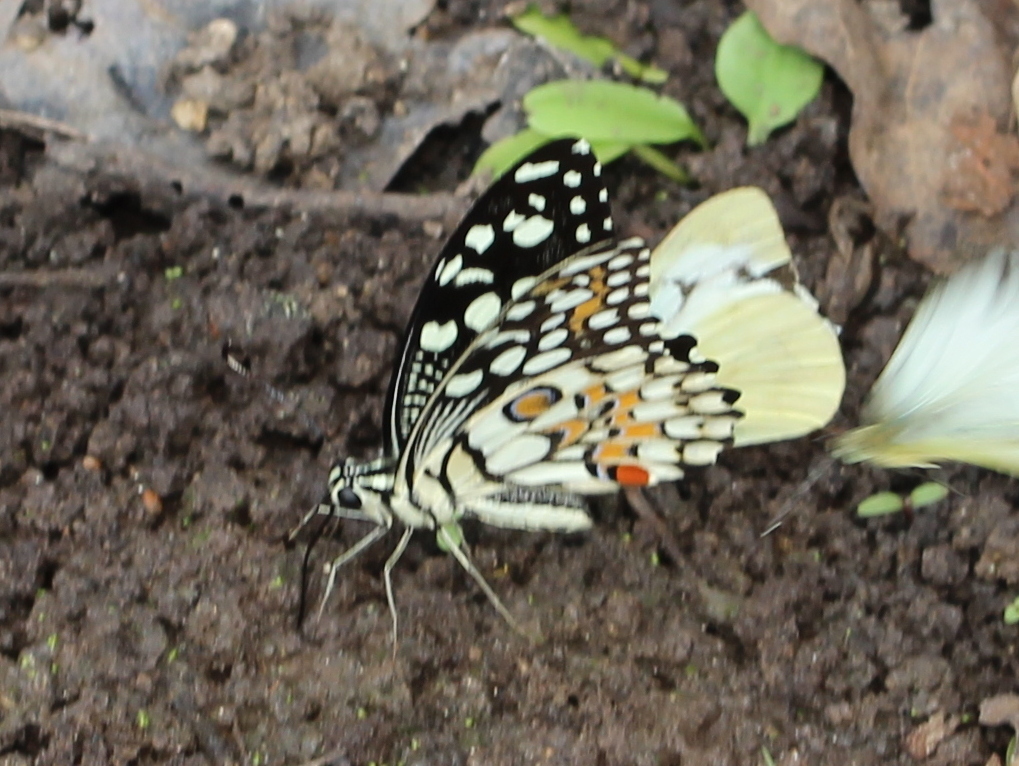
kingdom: Animalia
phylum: Arthropoda
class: Insecta
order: Lepidoptera
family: Papilionidae
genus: Papilio
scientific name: Papilio demoleus
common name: Lime butterfly
